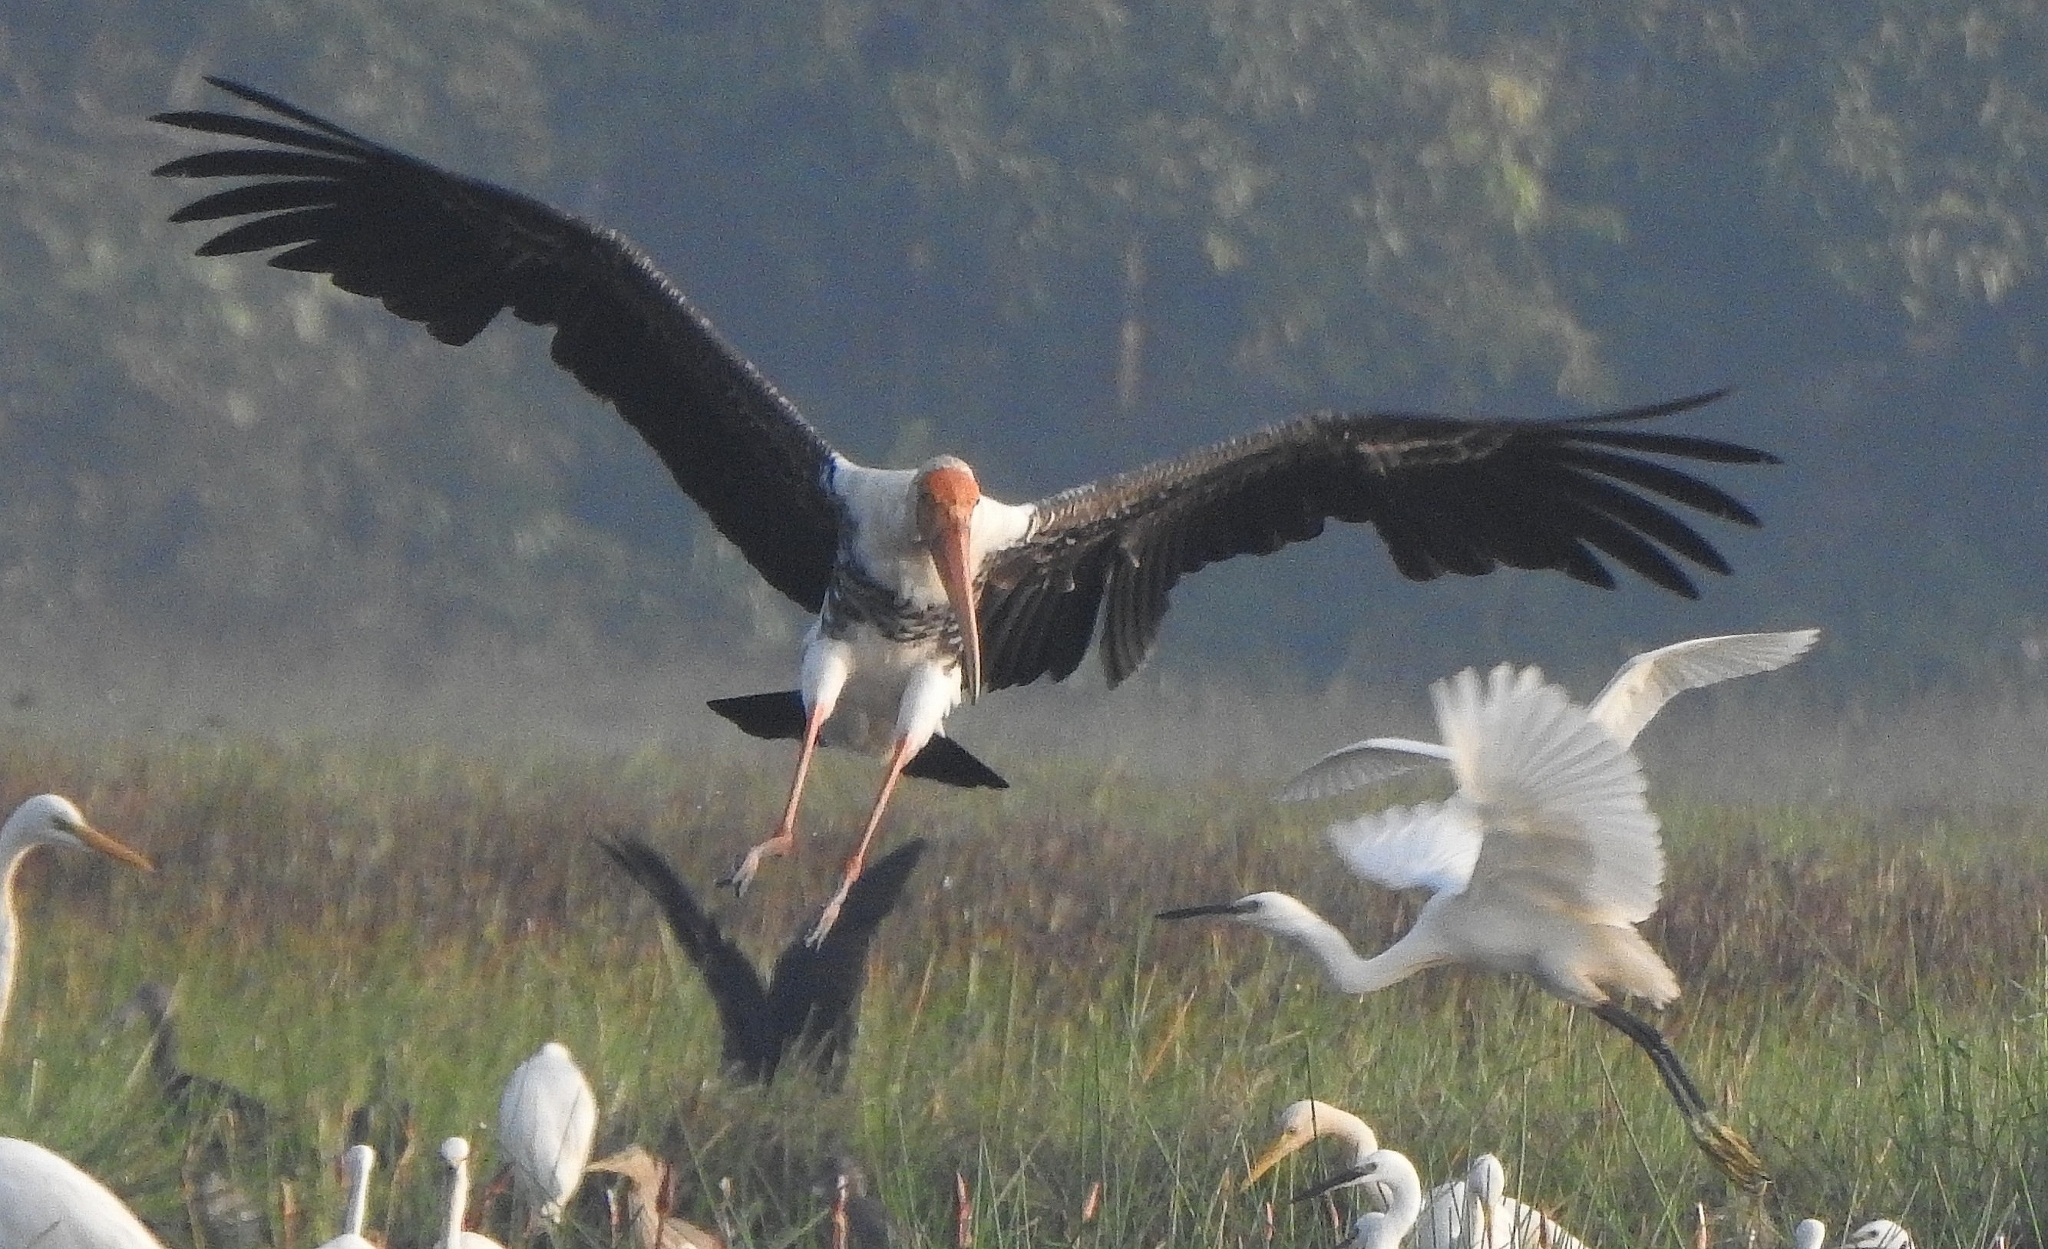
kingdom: Animalia
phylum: Chordata
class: Aves
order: Ciconiiformes
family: Ciconiidae
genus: Mycteria
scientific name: Mycteria leucocephala
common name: Painted stork
